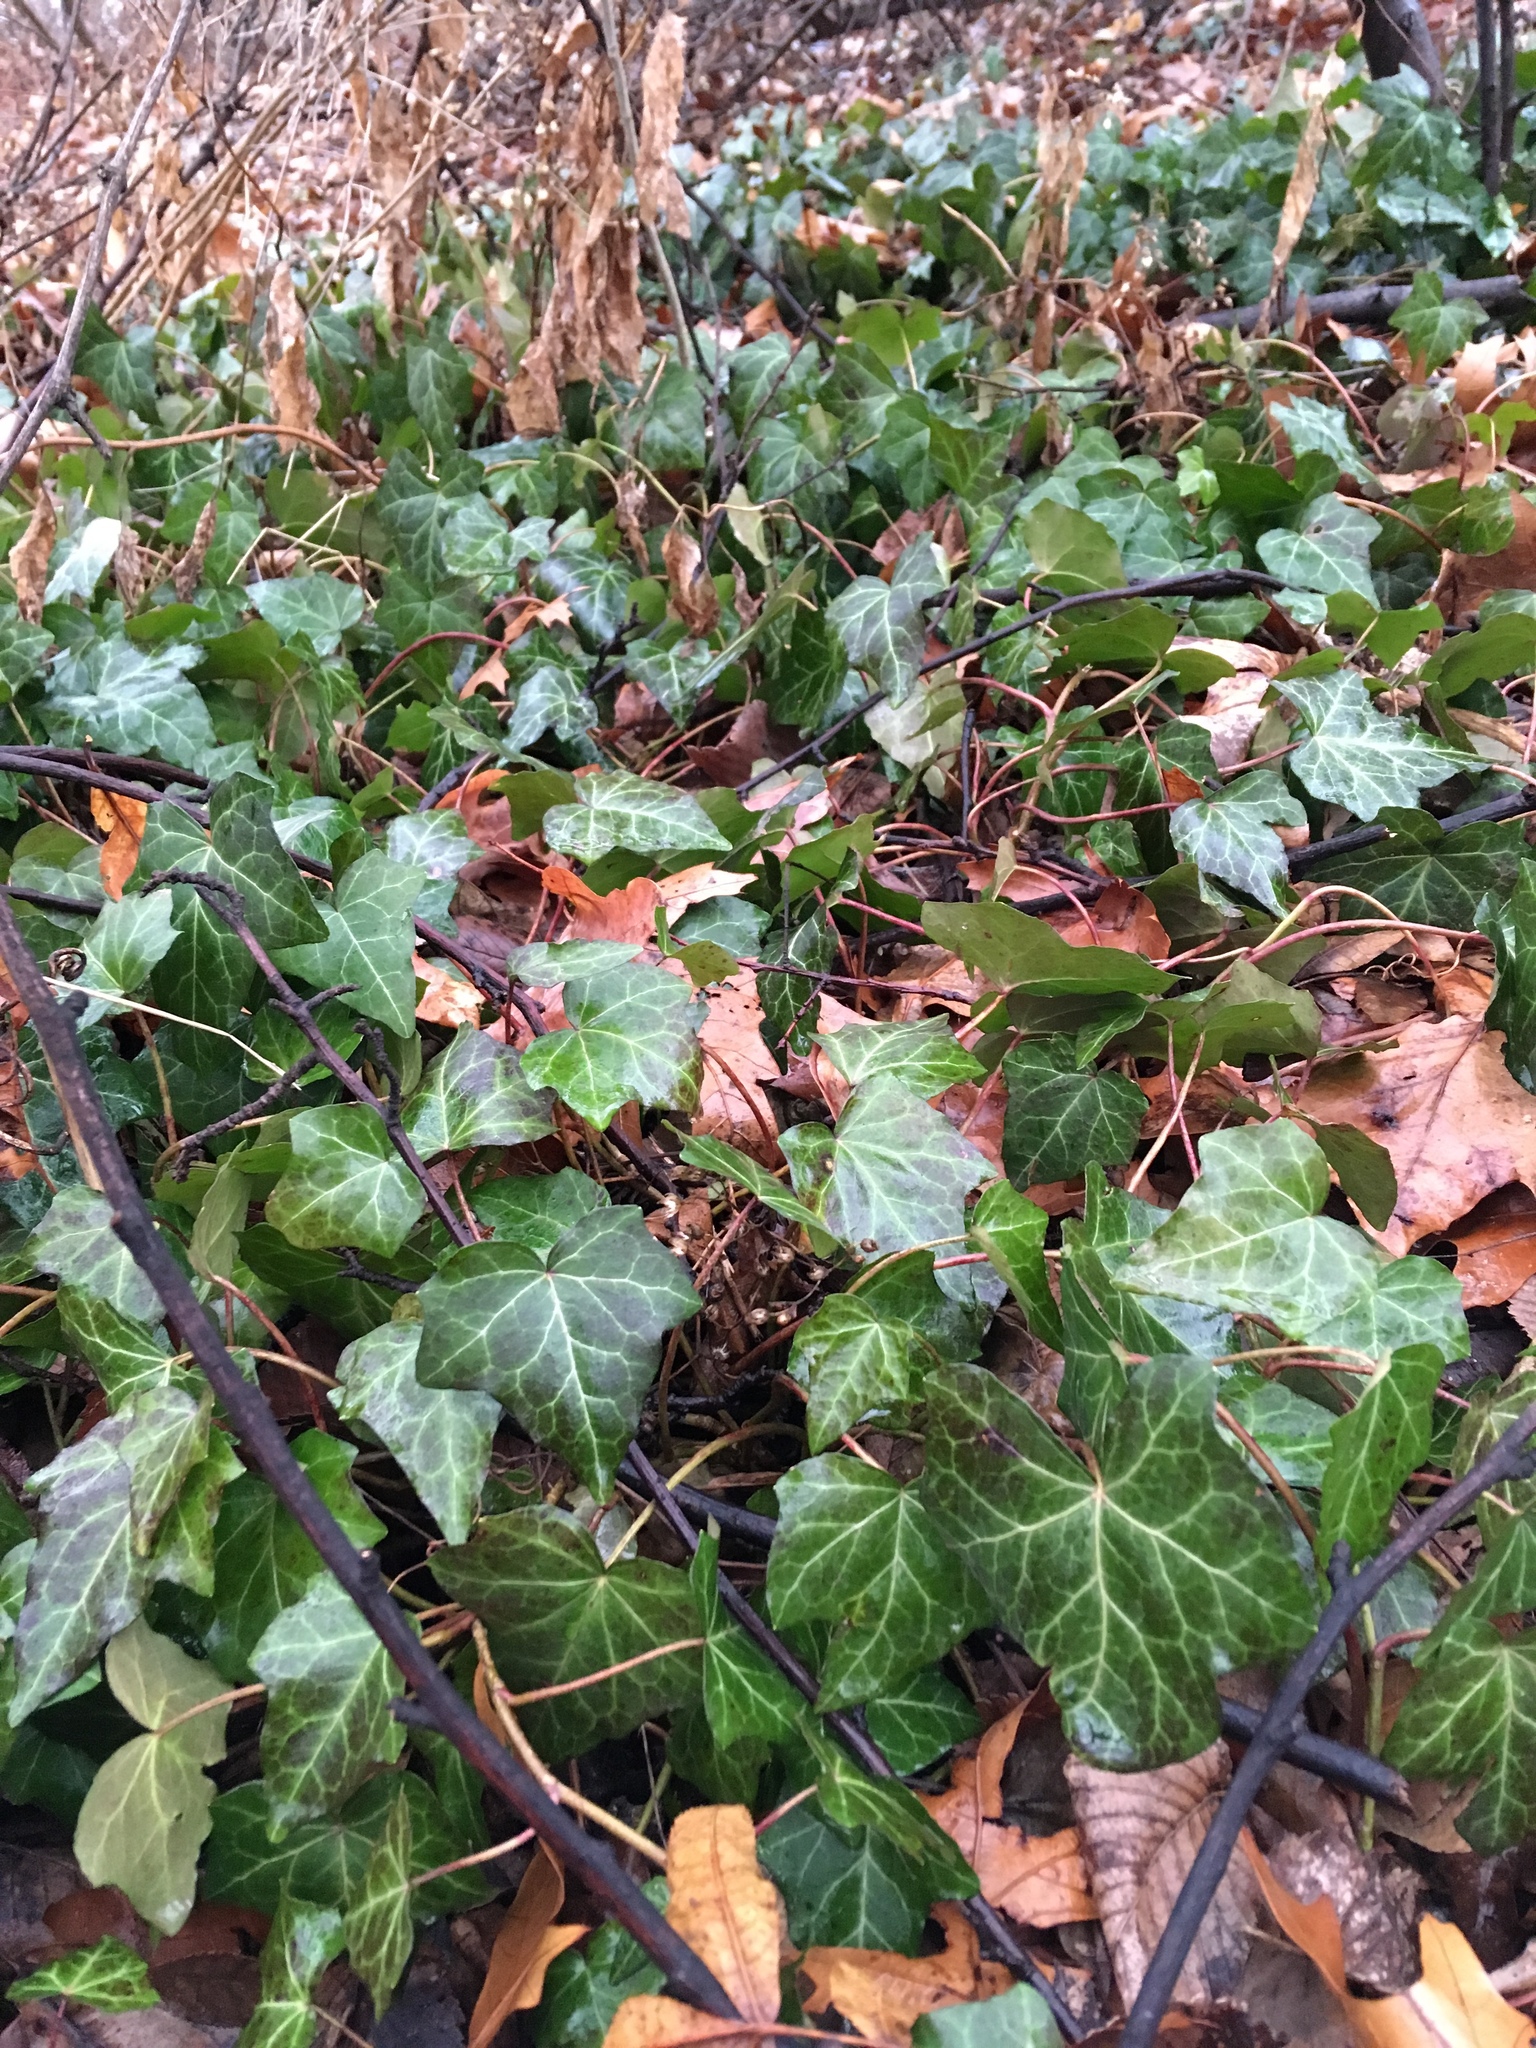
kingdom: Plantae
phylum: Tracheophyta
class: Magnoliopsida
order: Apiales
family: Araliaceae
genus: Hedera
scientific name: Hedera
